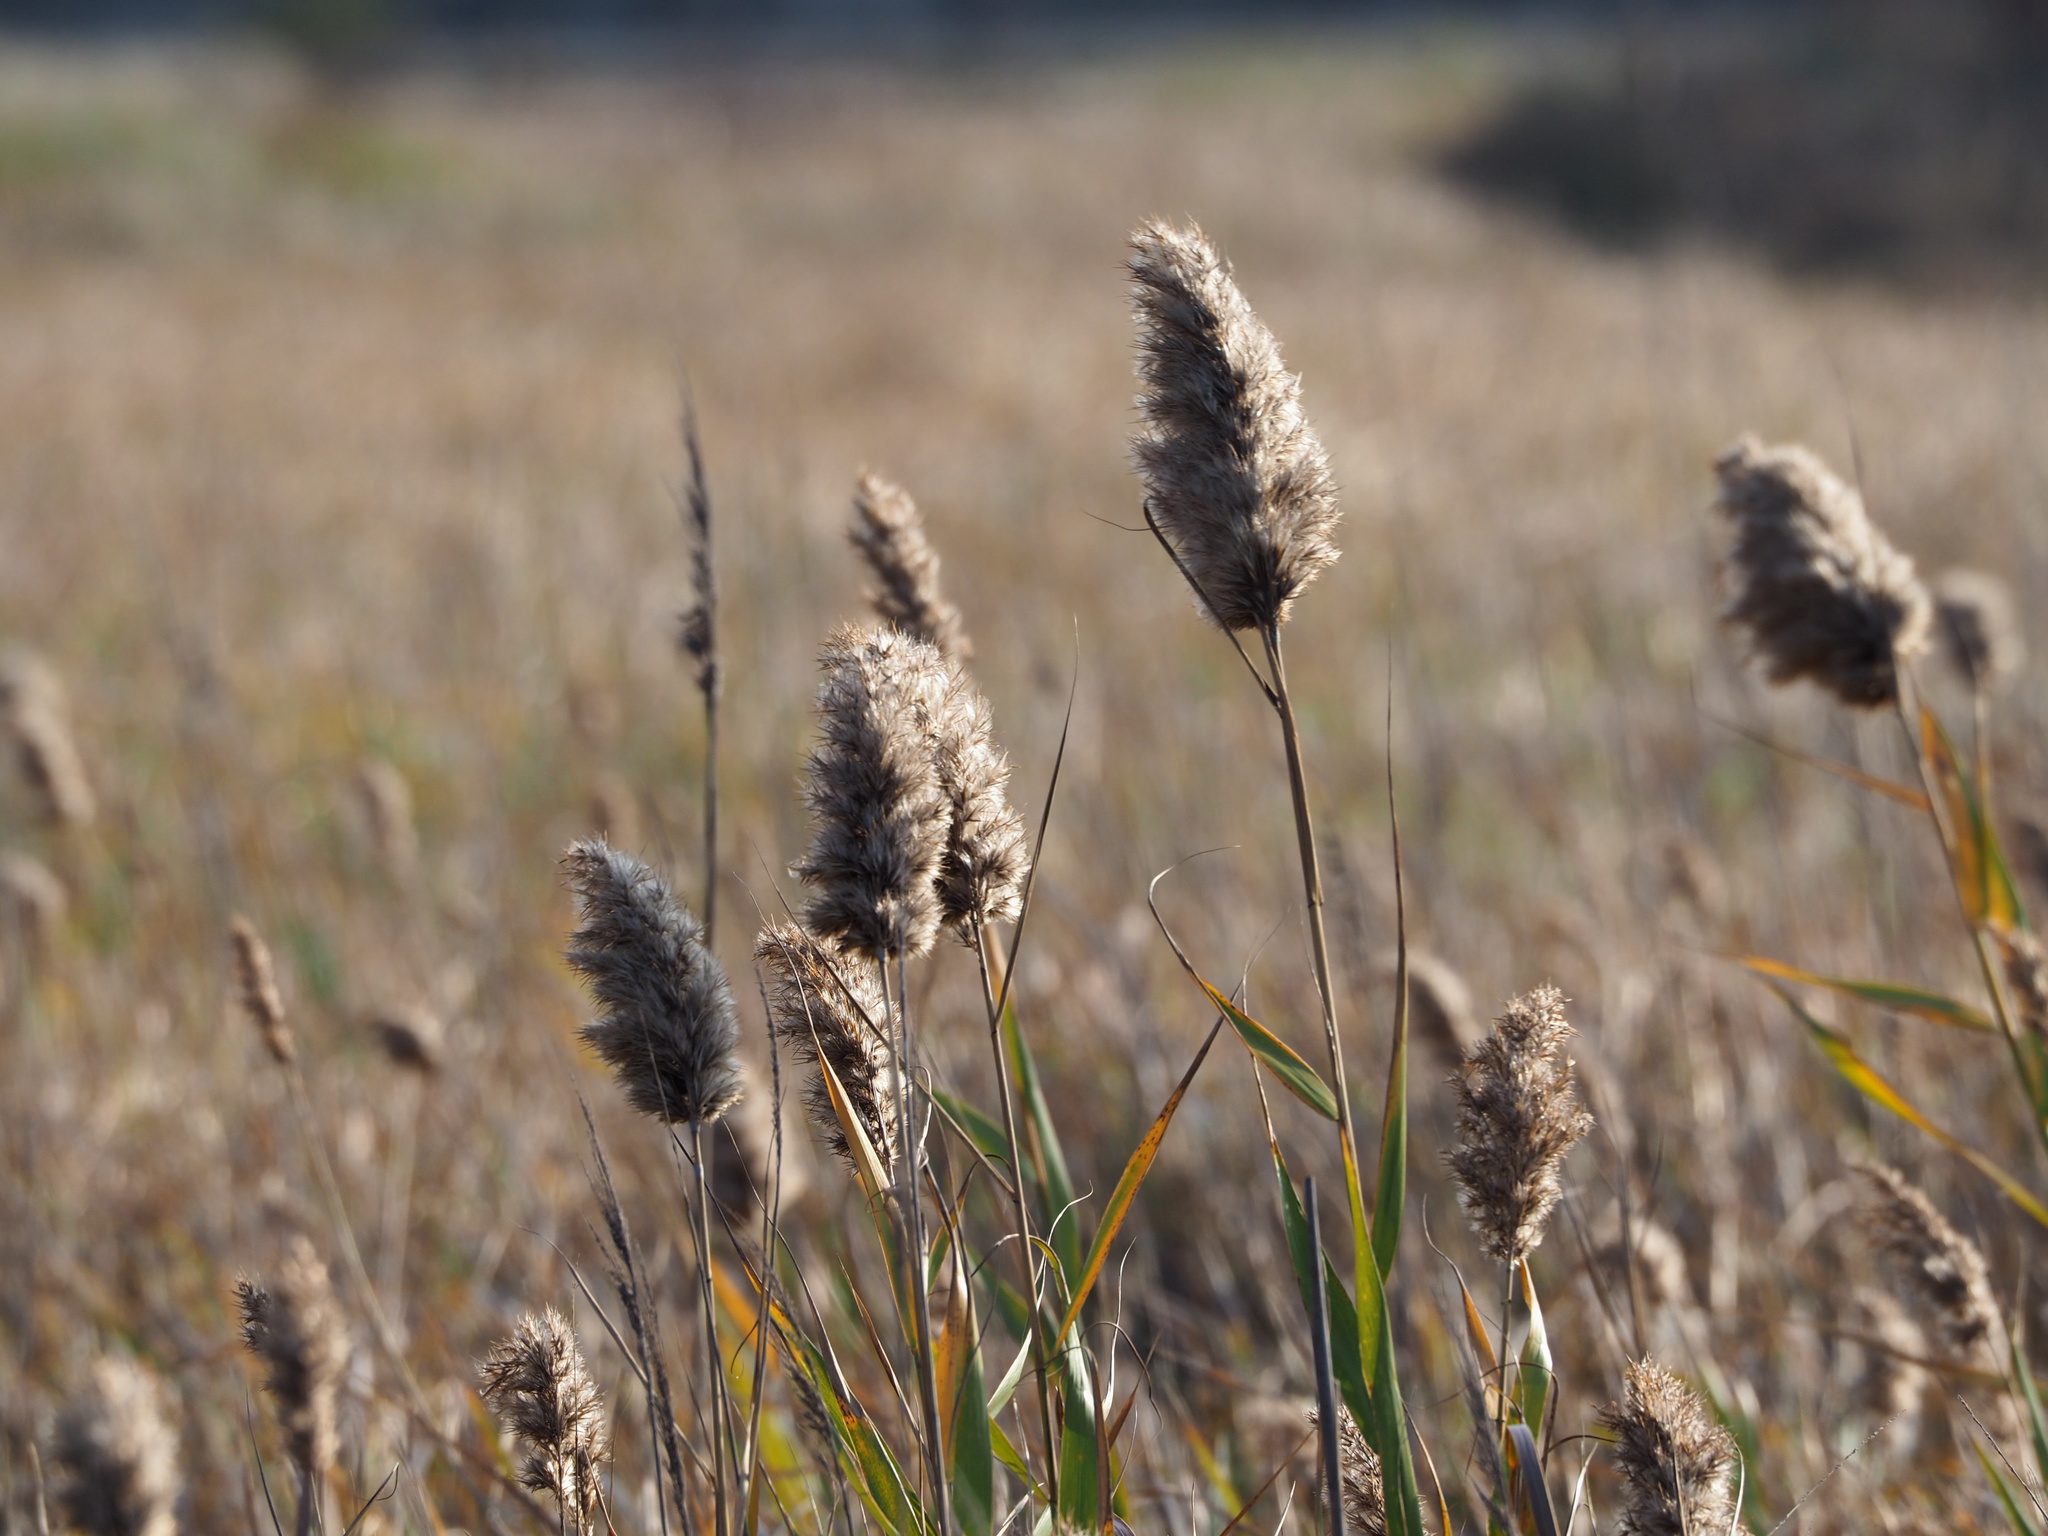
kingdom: Plantae
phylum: Tracheophyta
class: Liliopsida
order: Poales
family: Poaceae
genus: Phragmites
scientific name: Phragmites australis
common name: Common reed
